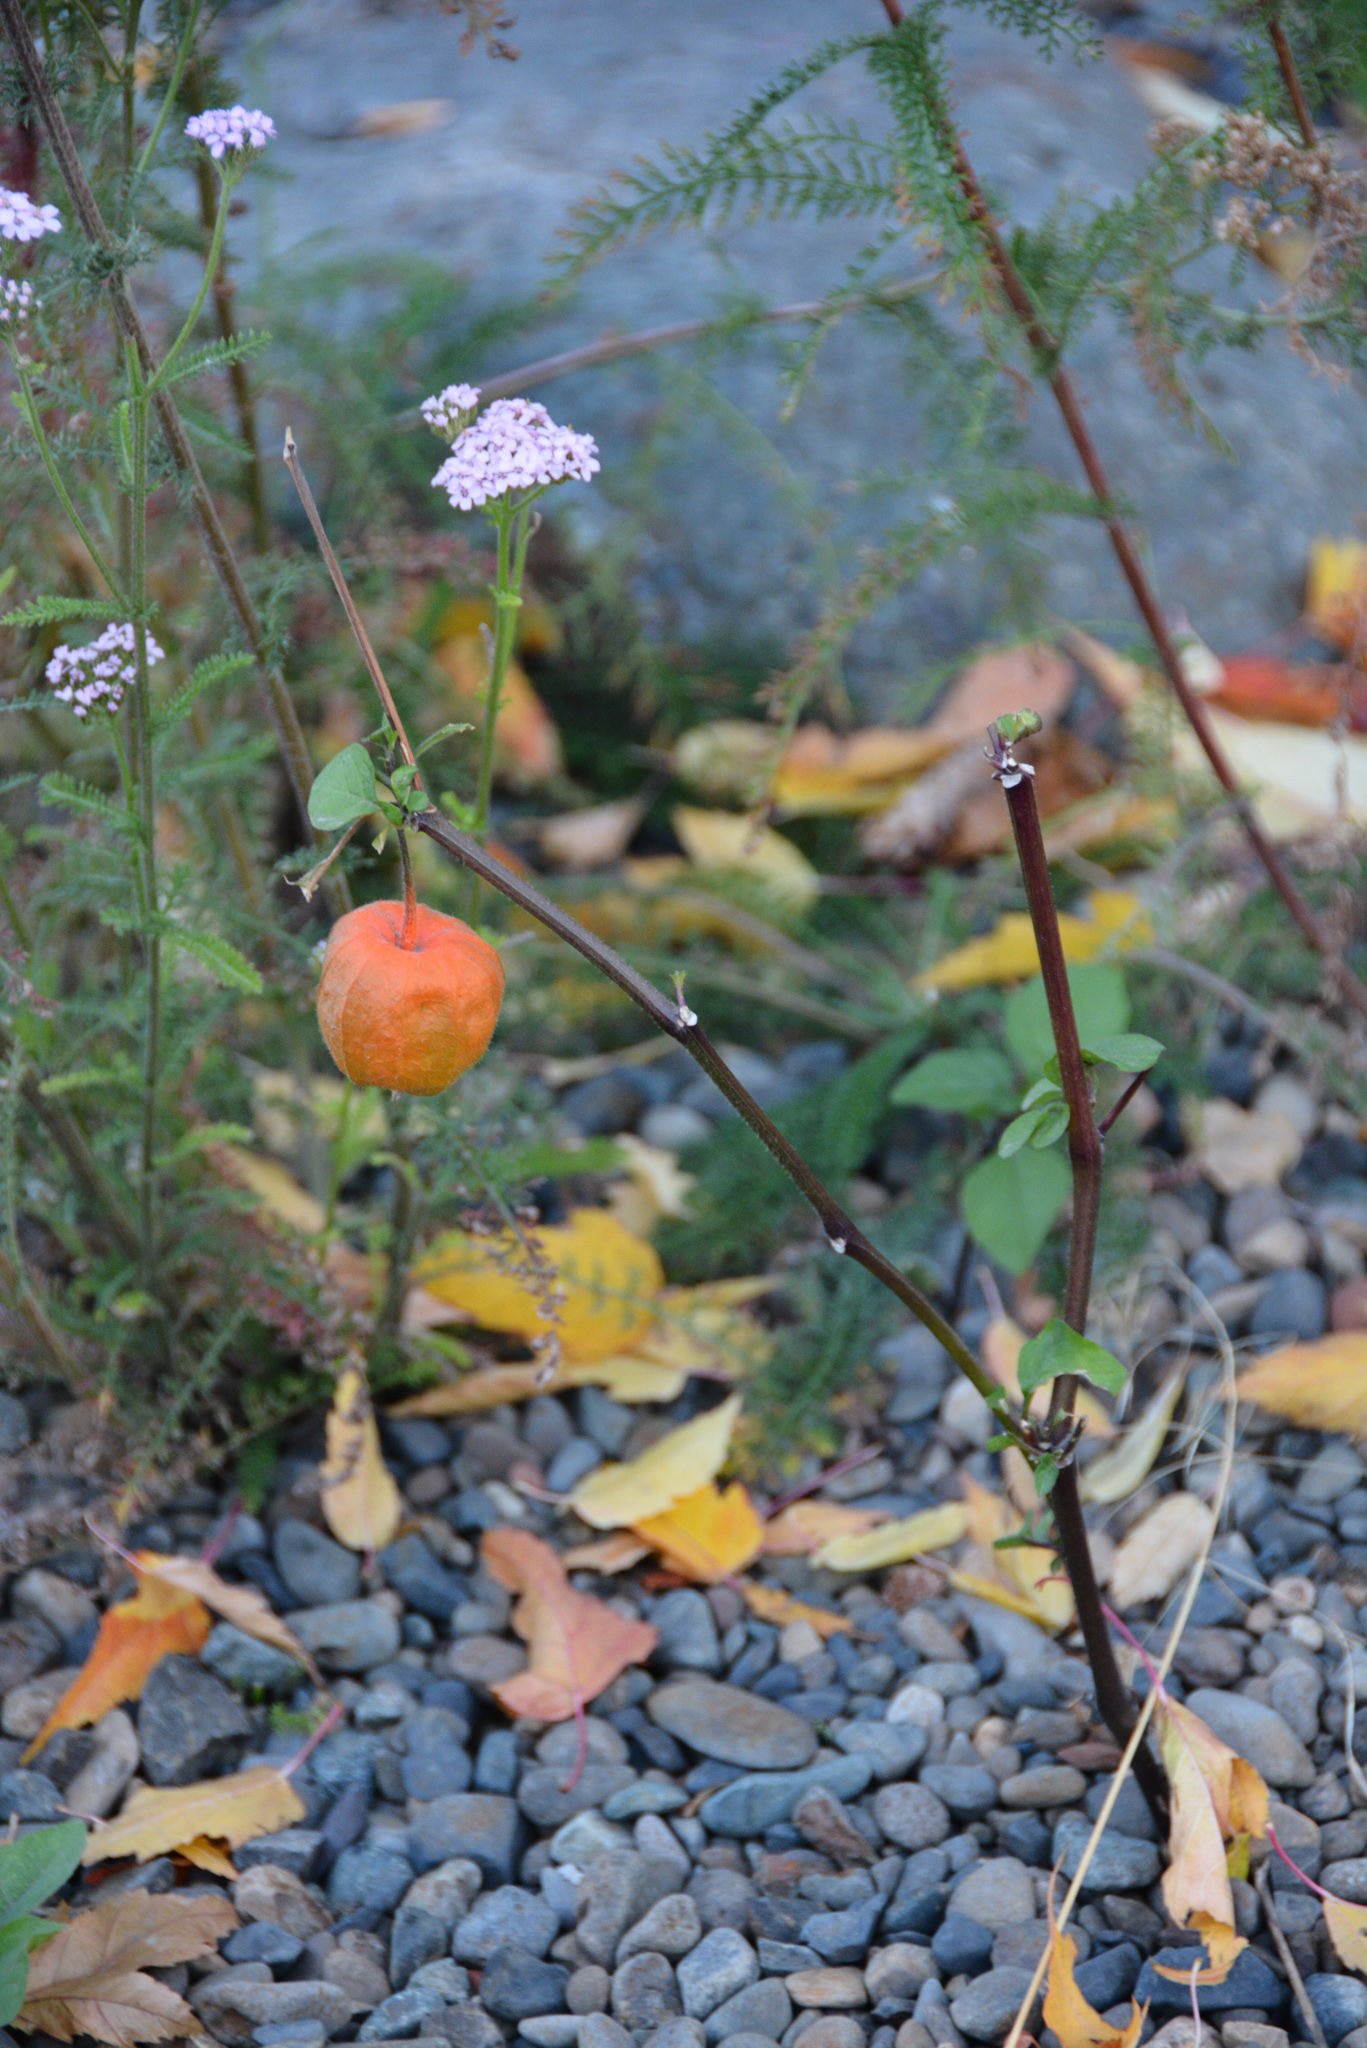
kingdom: Plantae
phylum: Tracheophyta
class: Magnoliopsida
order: Solanales
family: Solanaceae
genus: Alkekengi
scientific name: Alkekengi officinarum
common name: Japanese-lantern
